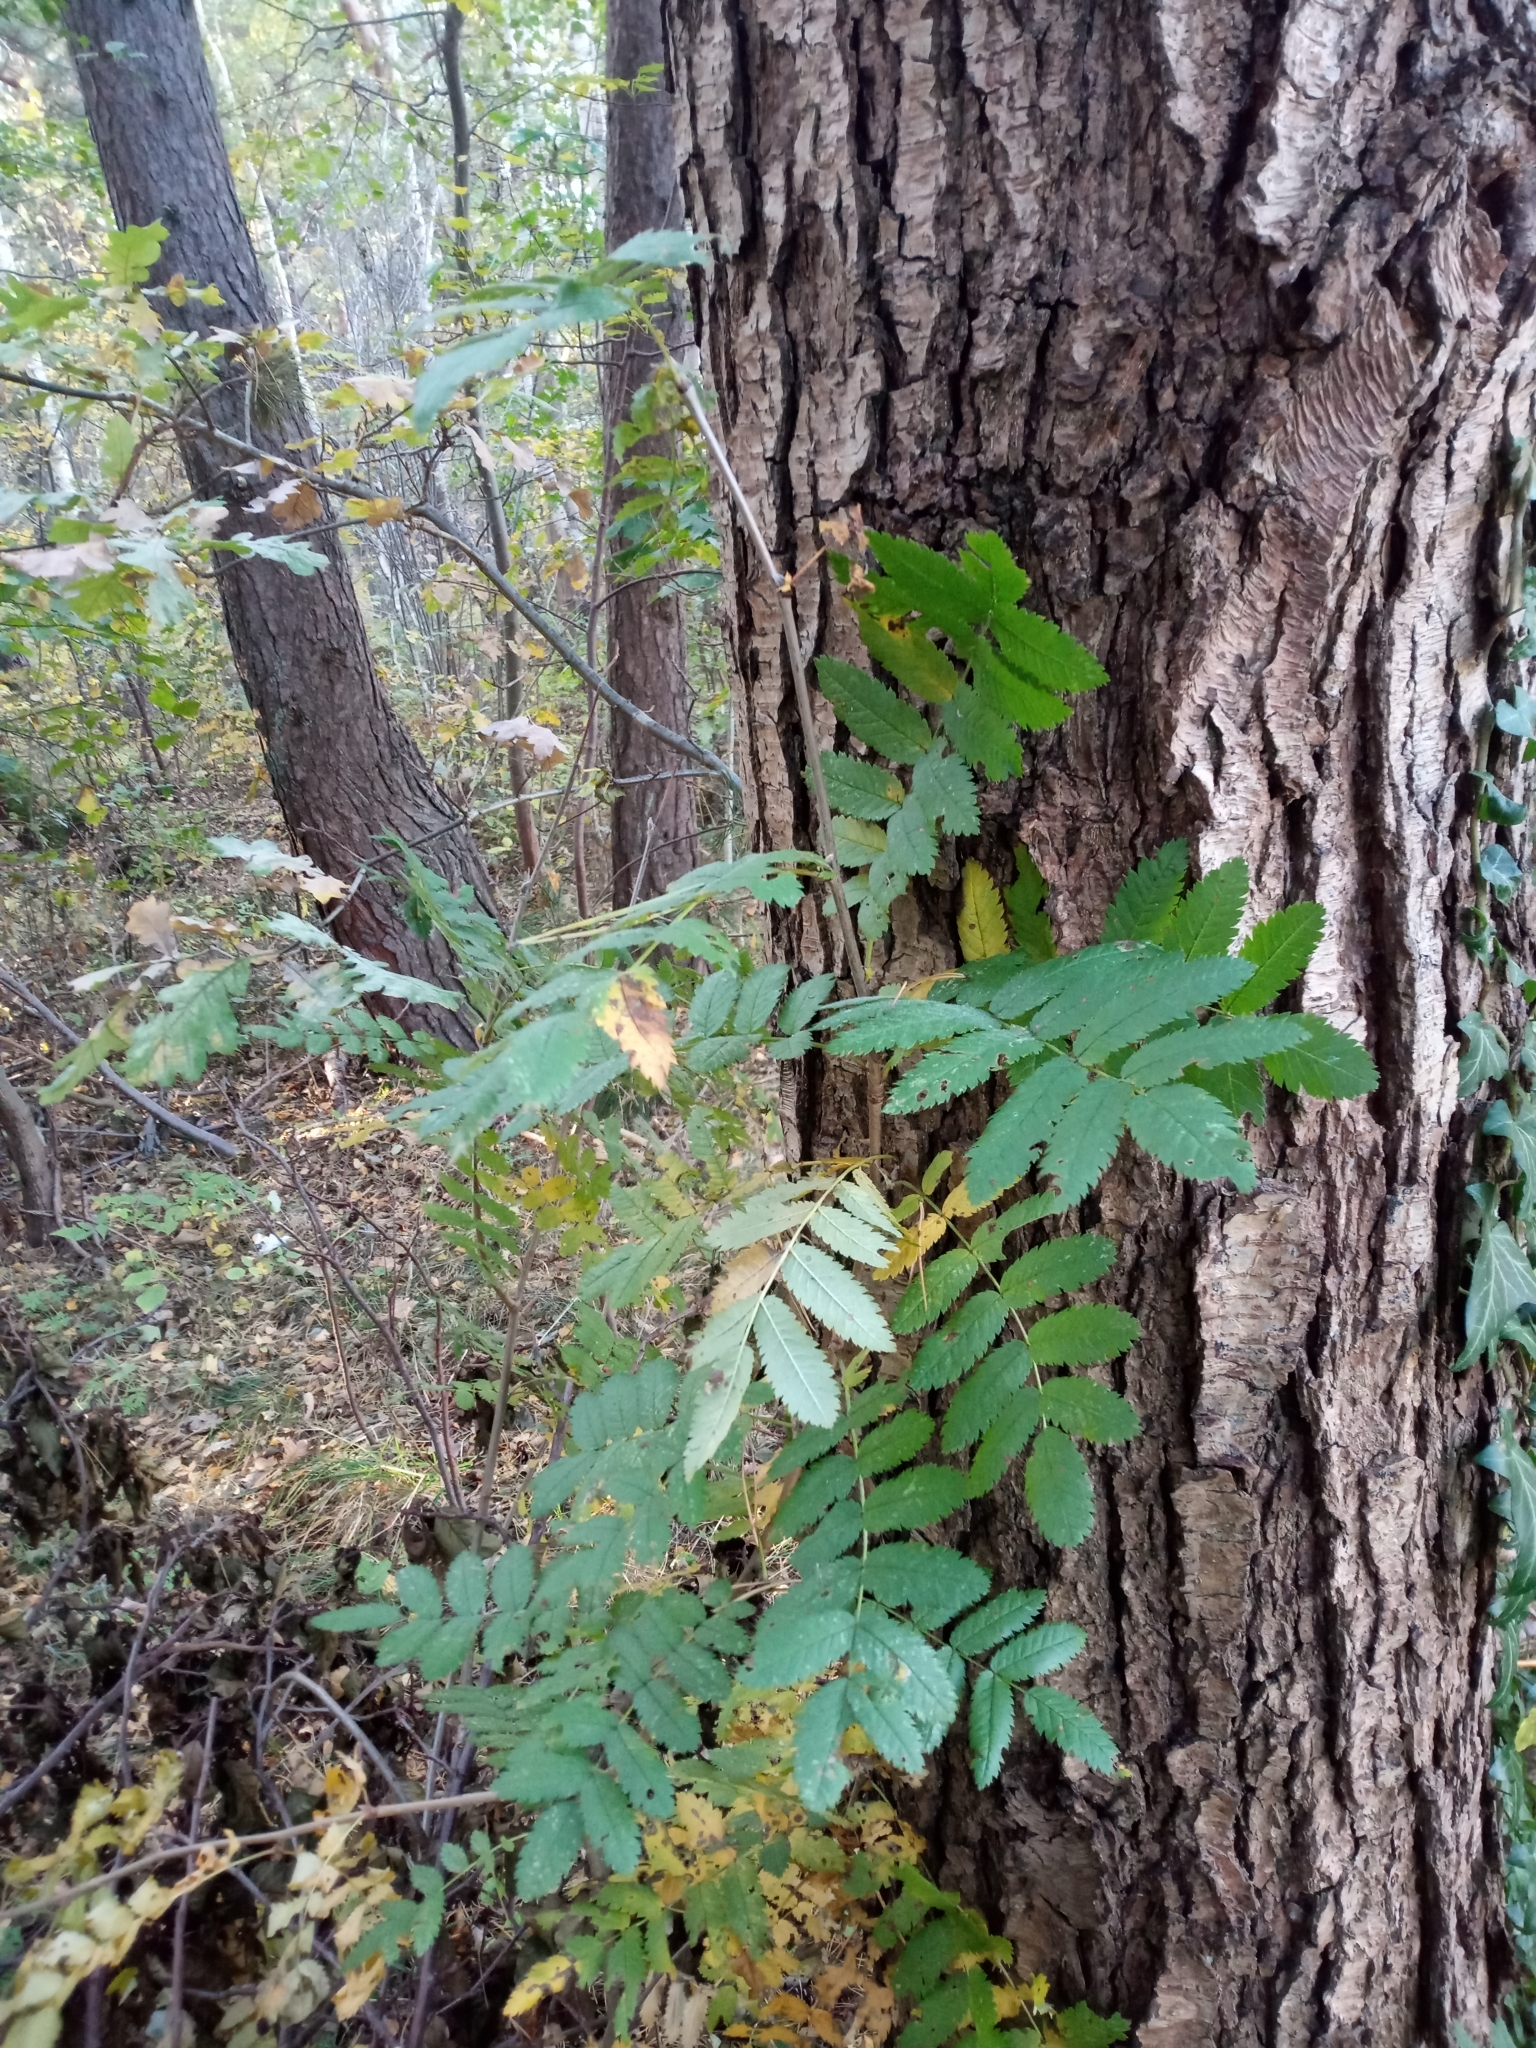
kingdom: Plantae
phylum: Tracheophyta
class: Magnoliopsida
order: Rosales
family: Rosaceae
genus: Sorbus
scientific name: Sorbus aucuparia
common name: Rowan
